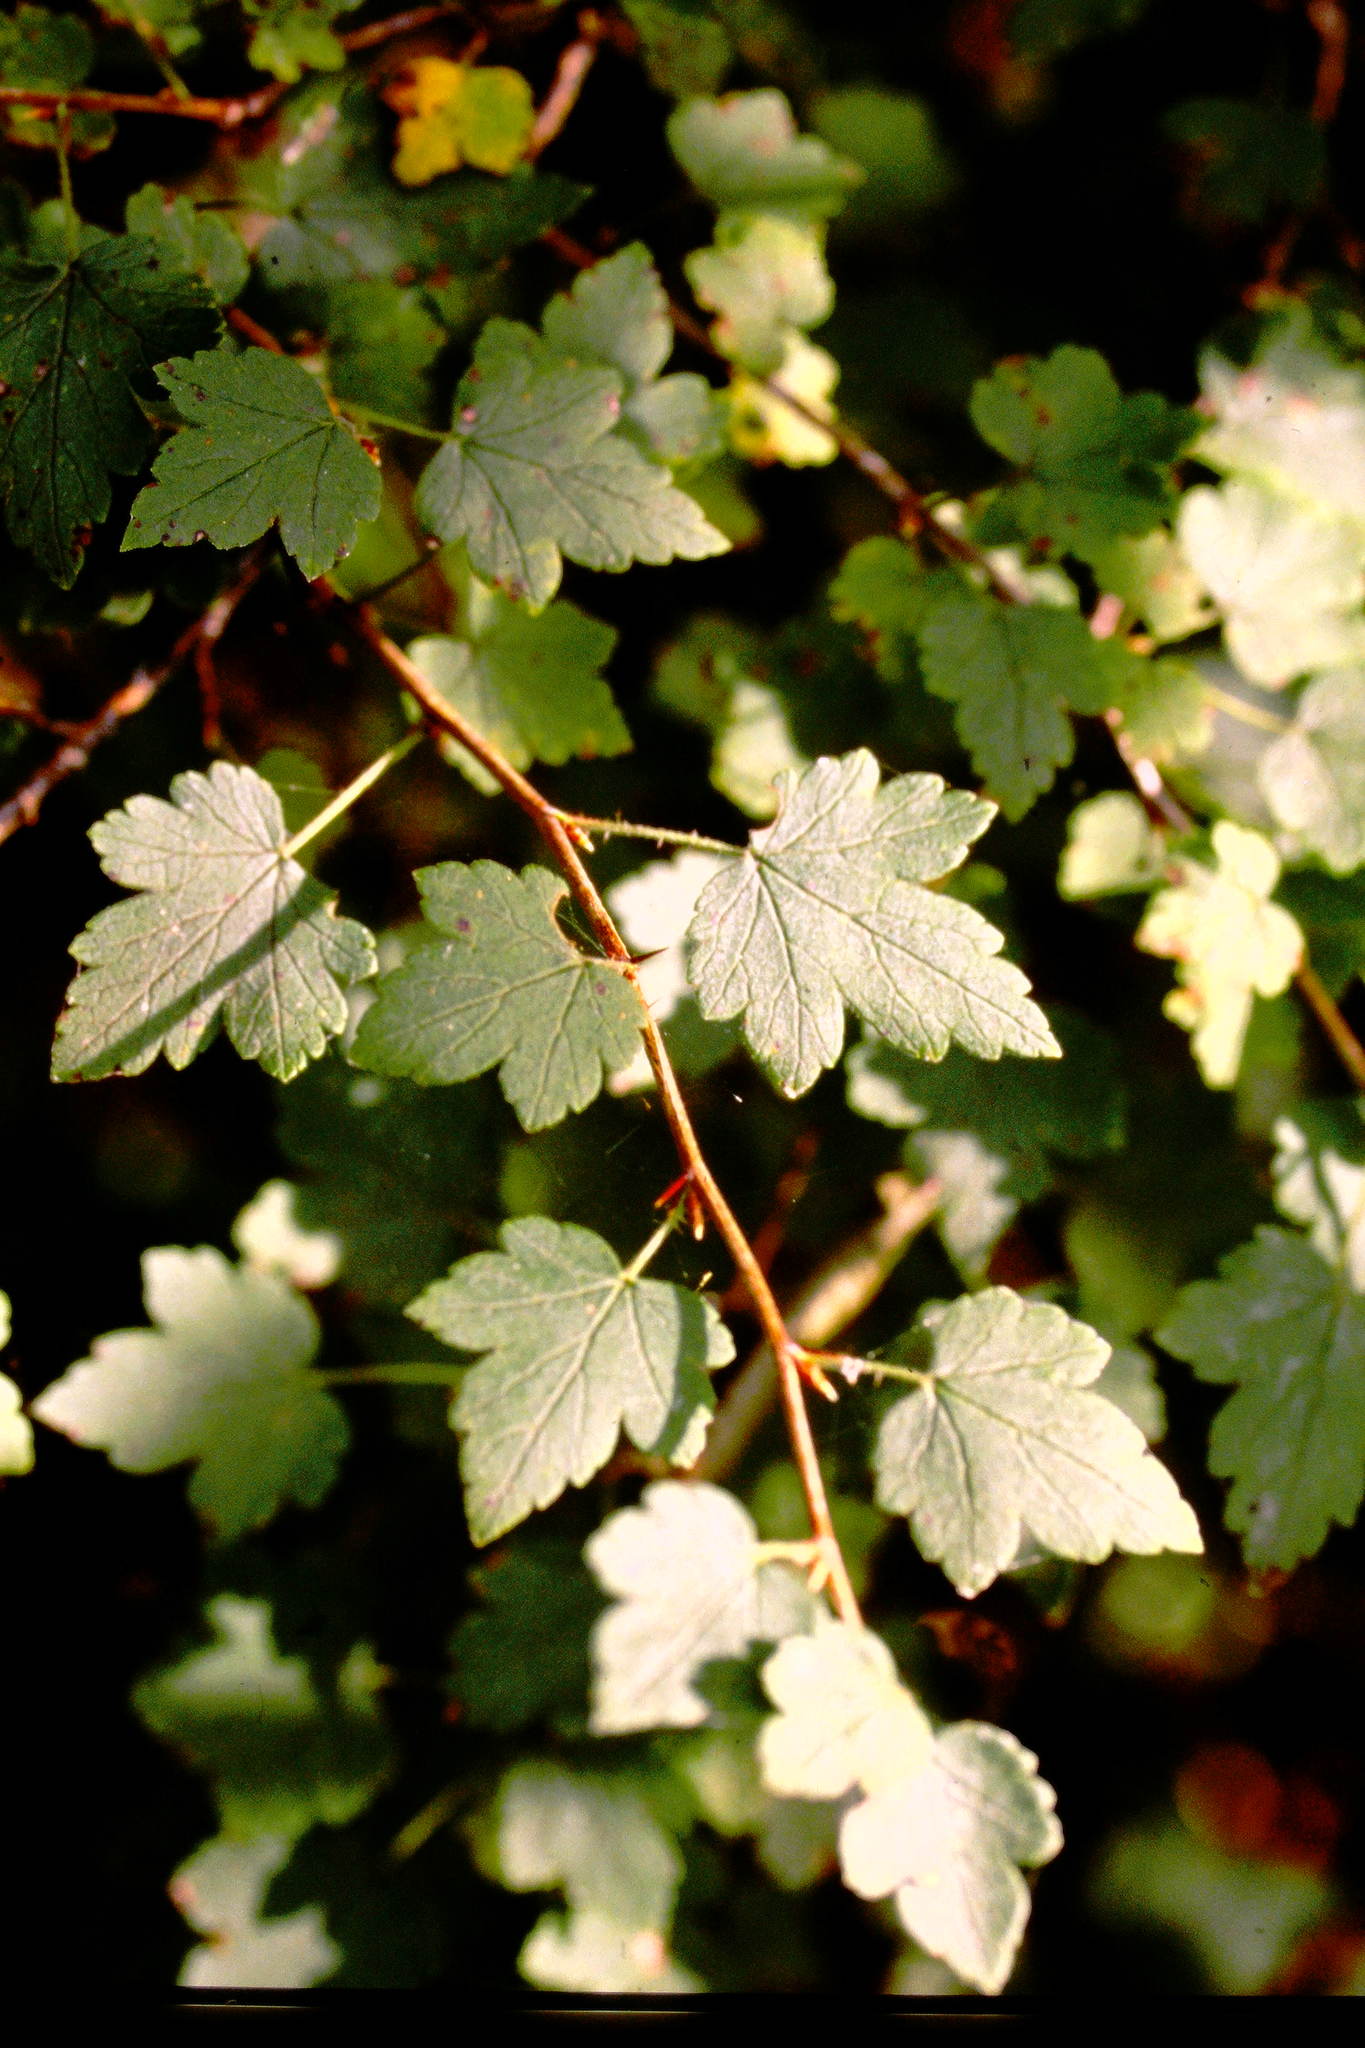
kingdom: Plantae
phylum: Tracheophyta
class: Magnoliopsida
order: Saxifragales
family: Grossulariaceae
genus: Ribes
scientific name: Ribes cynosbati
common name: American gooseberry
